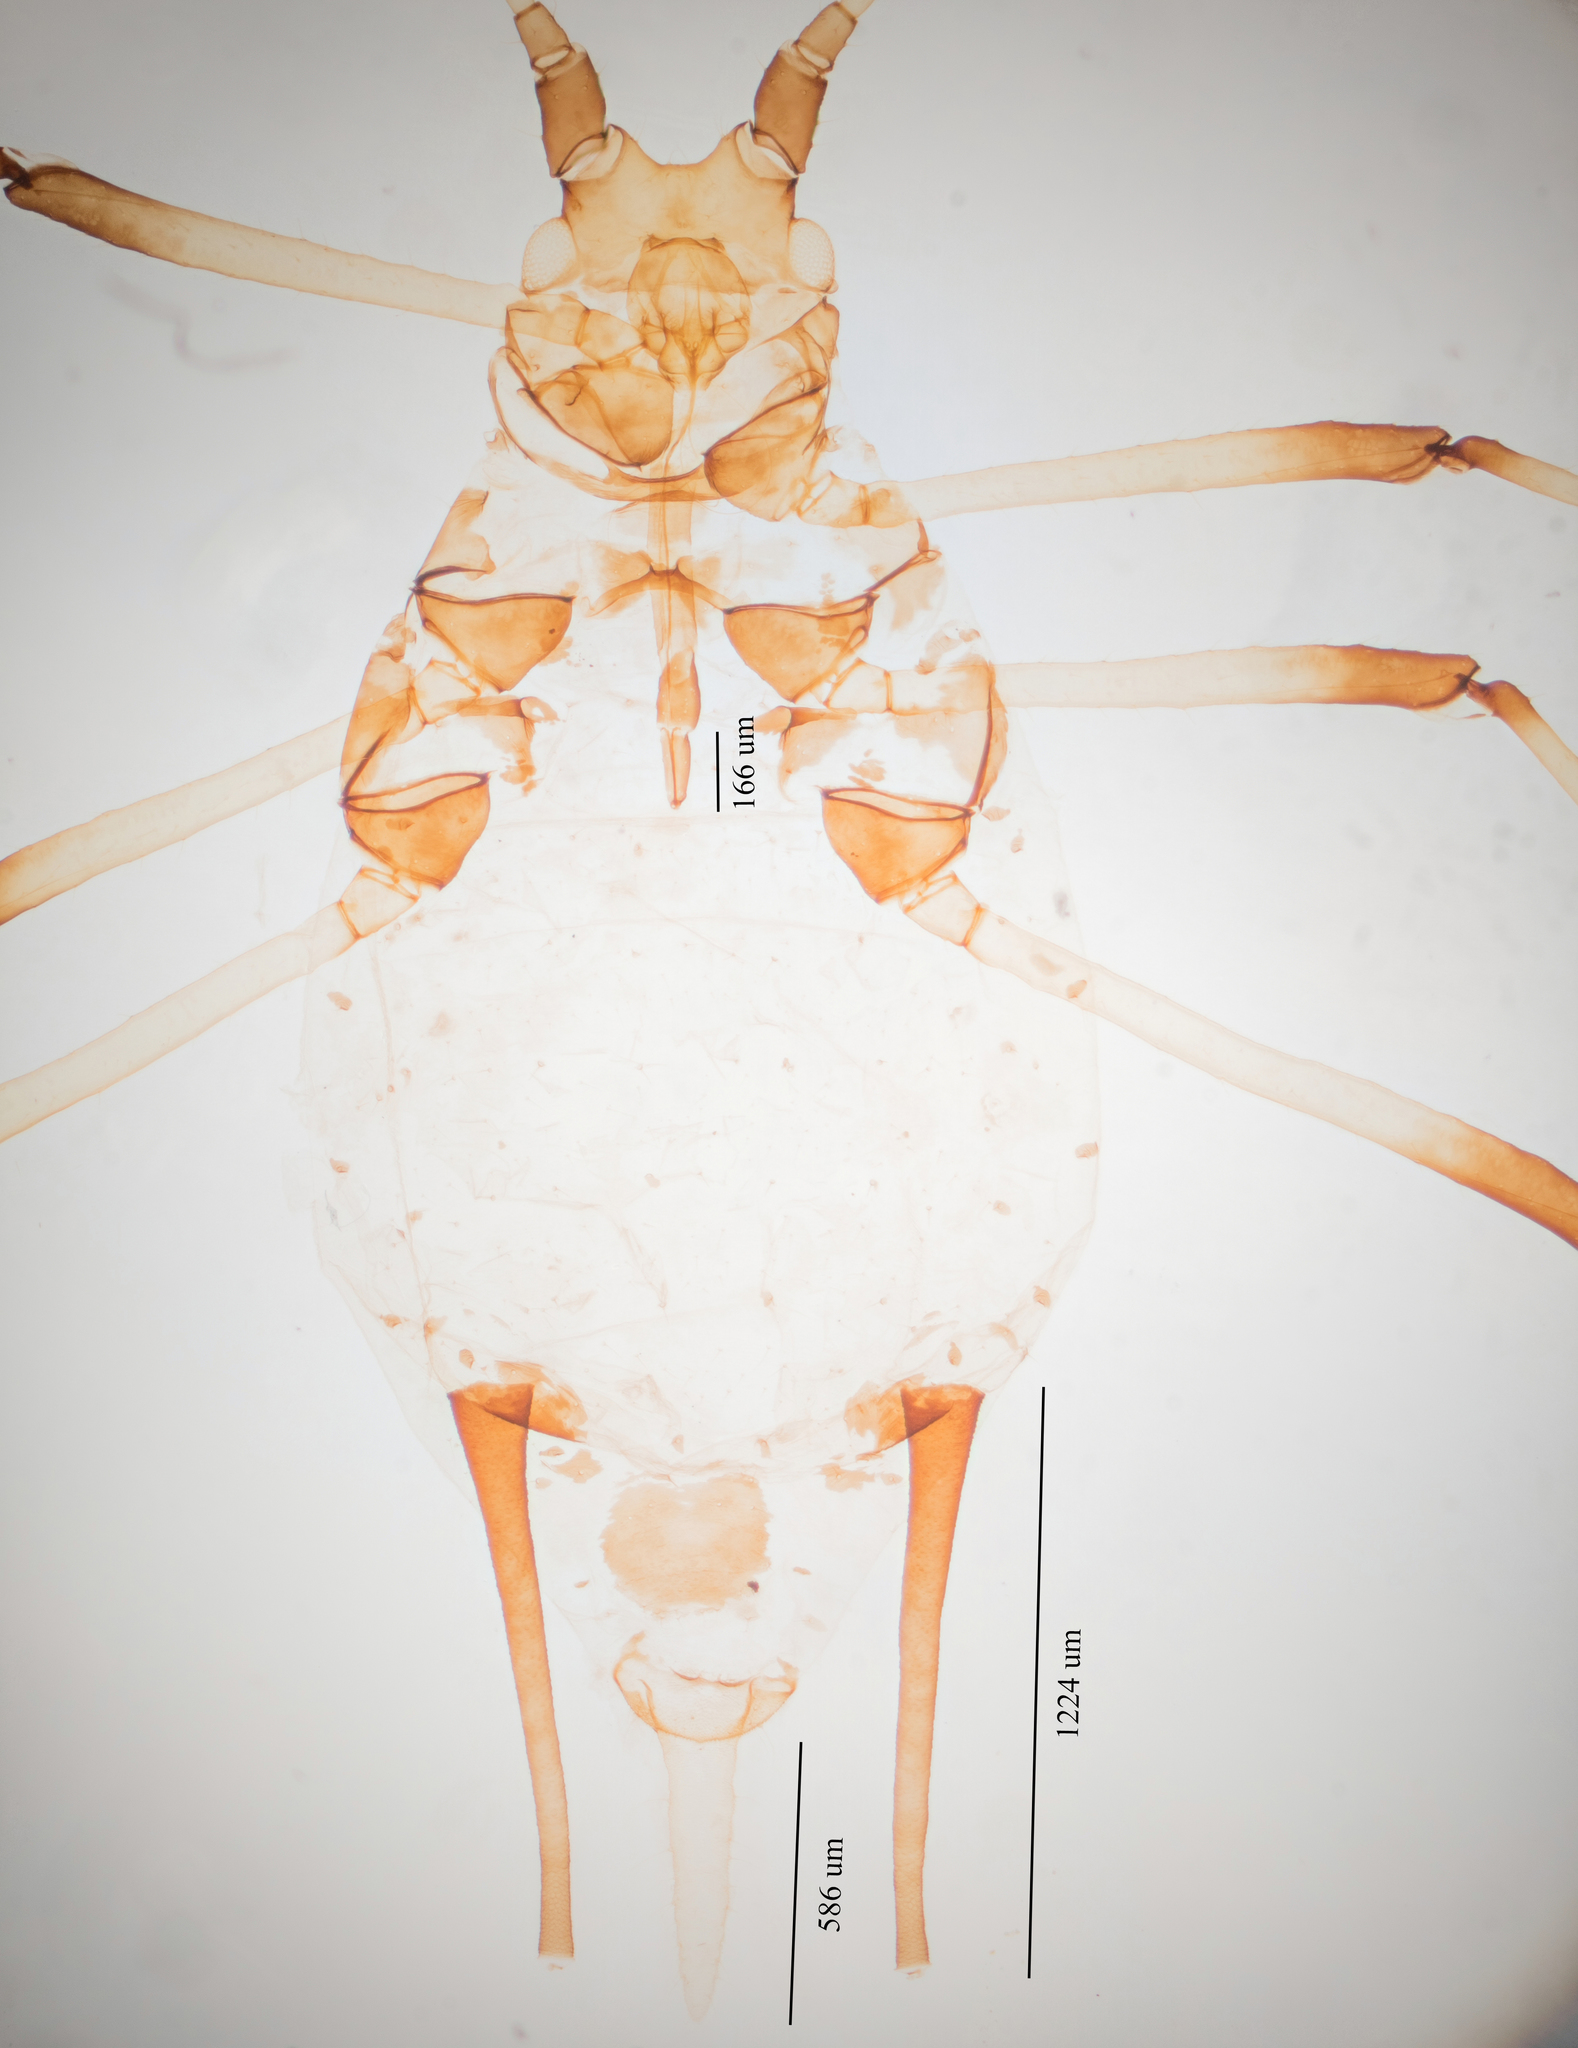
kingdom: Animalia
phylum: Arthropoda
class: Insecta
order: Hemiptera
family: Aphididae
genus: Uroleucon
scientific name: Uroleucon sonchi
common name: Large sowthistle aphid
